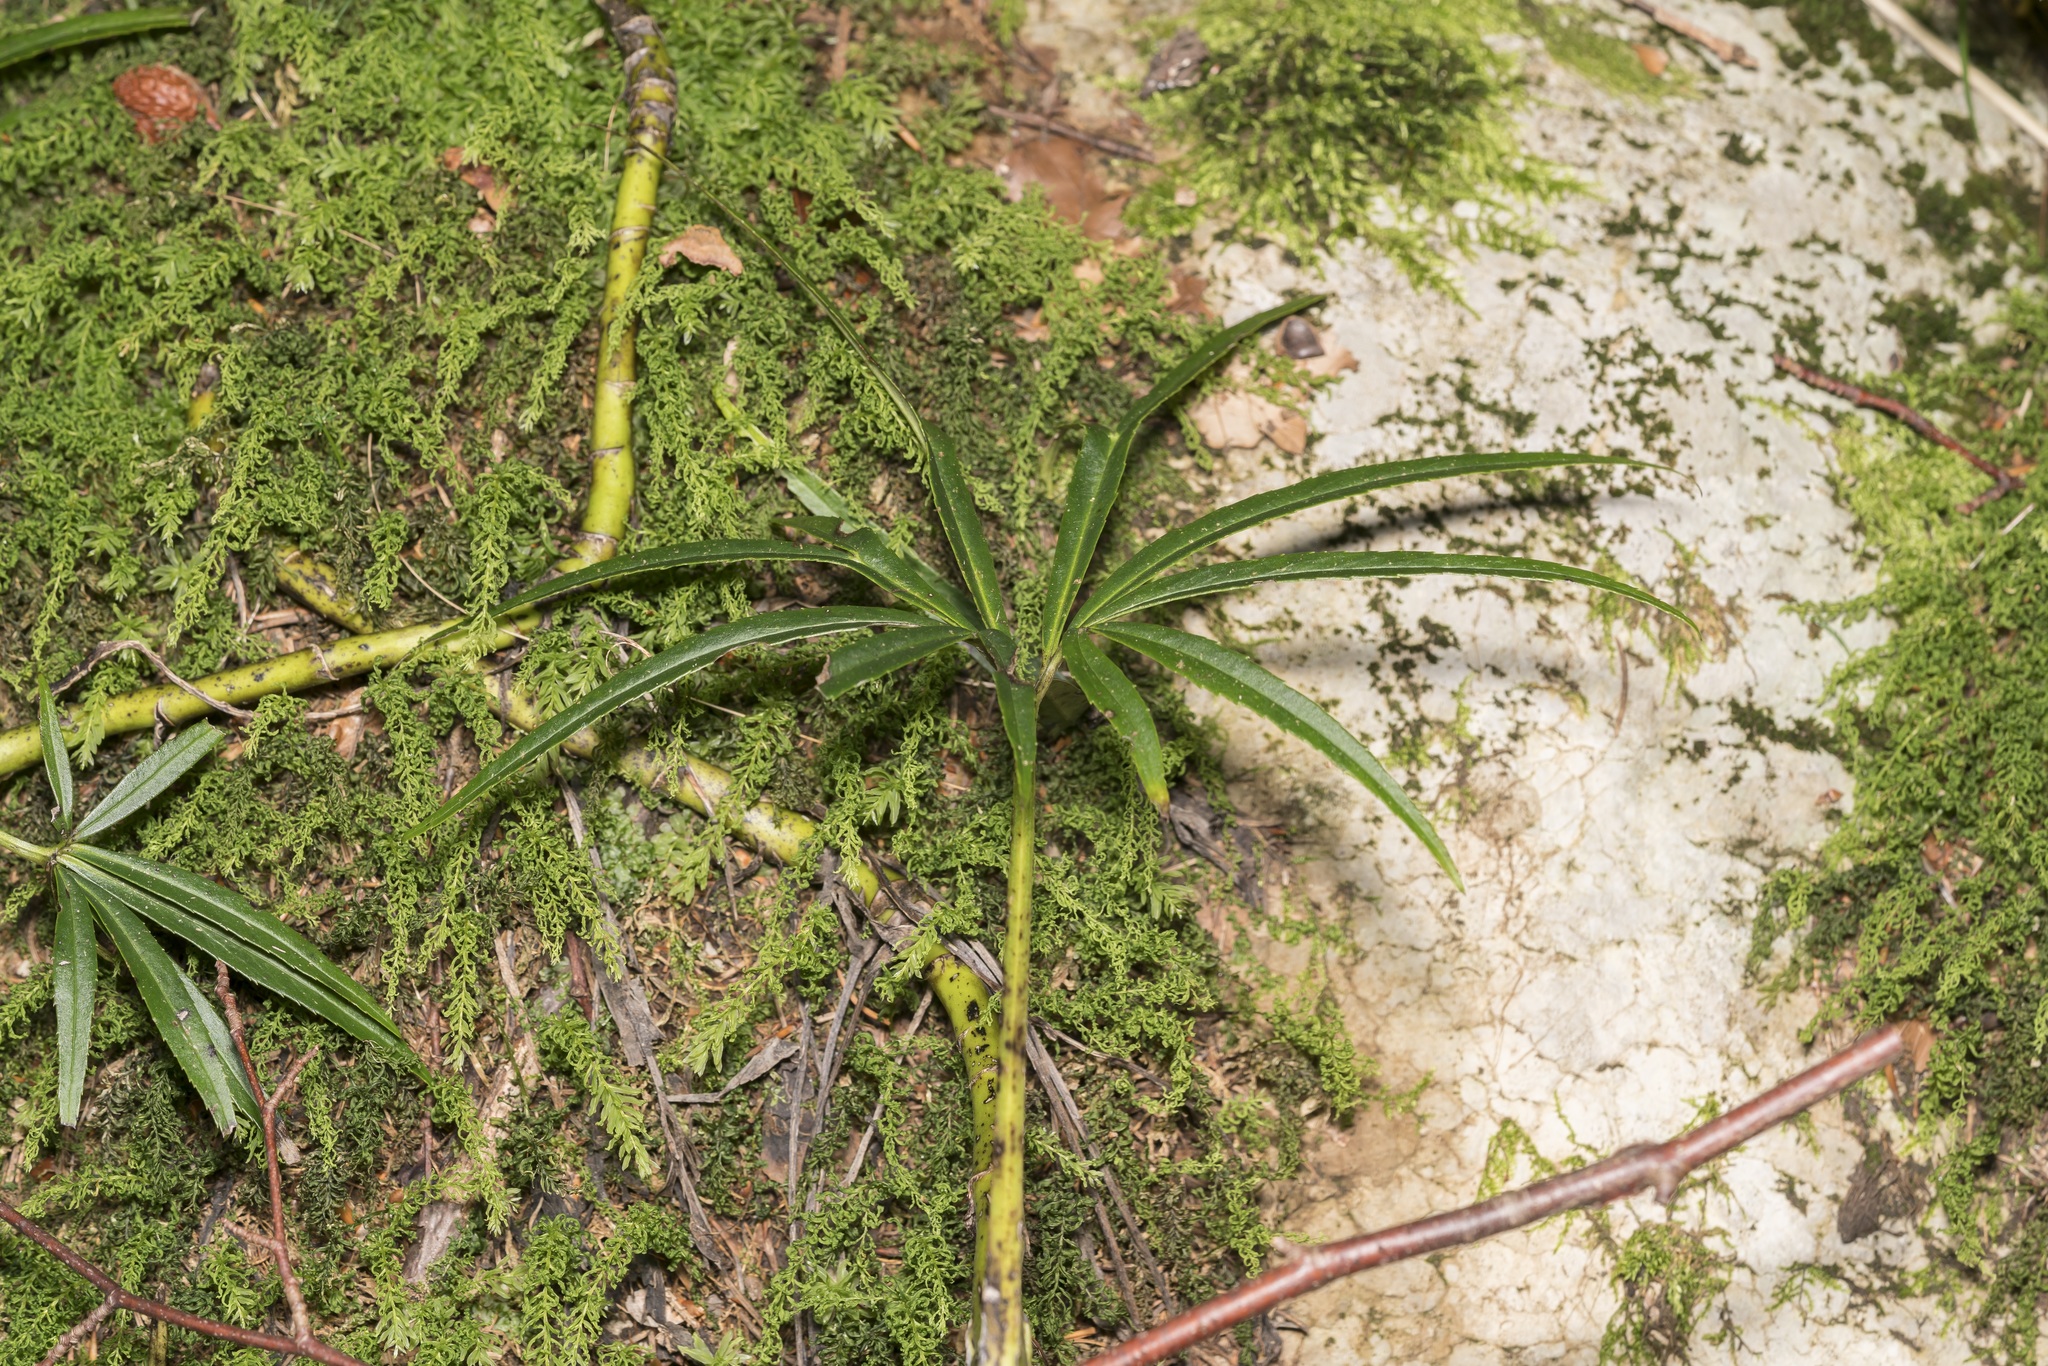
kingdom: Plantae
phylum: Tracheophyta
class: Magnoliopsida
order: Ranunculales
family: Ranunculaceae
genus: Helleborus
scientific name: Helleborus foetidus
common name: Stinking hellebore
